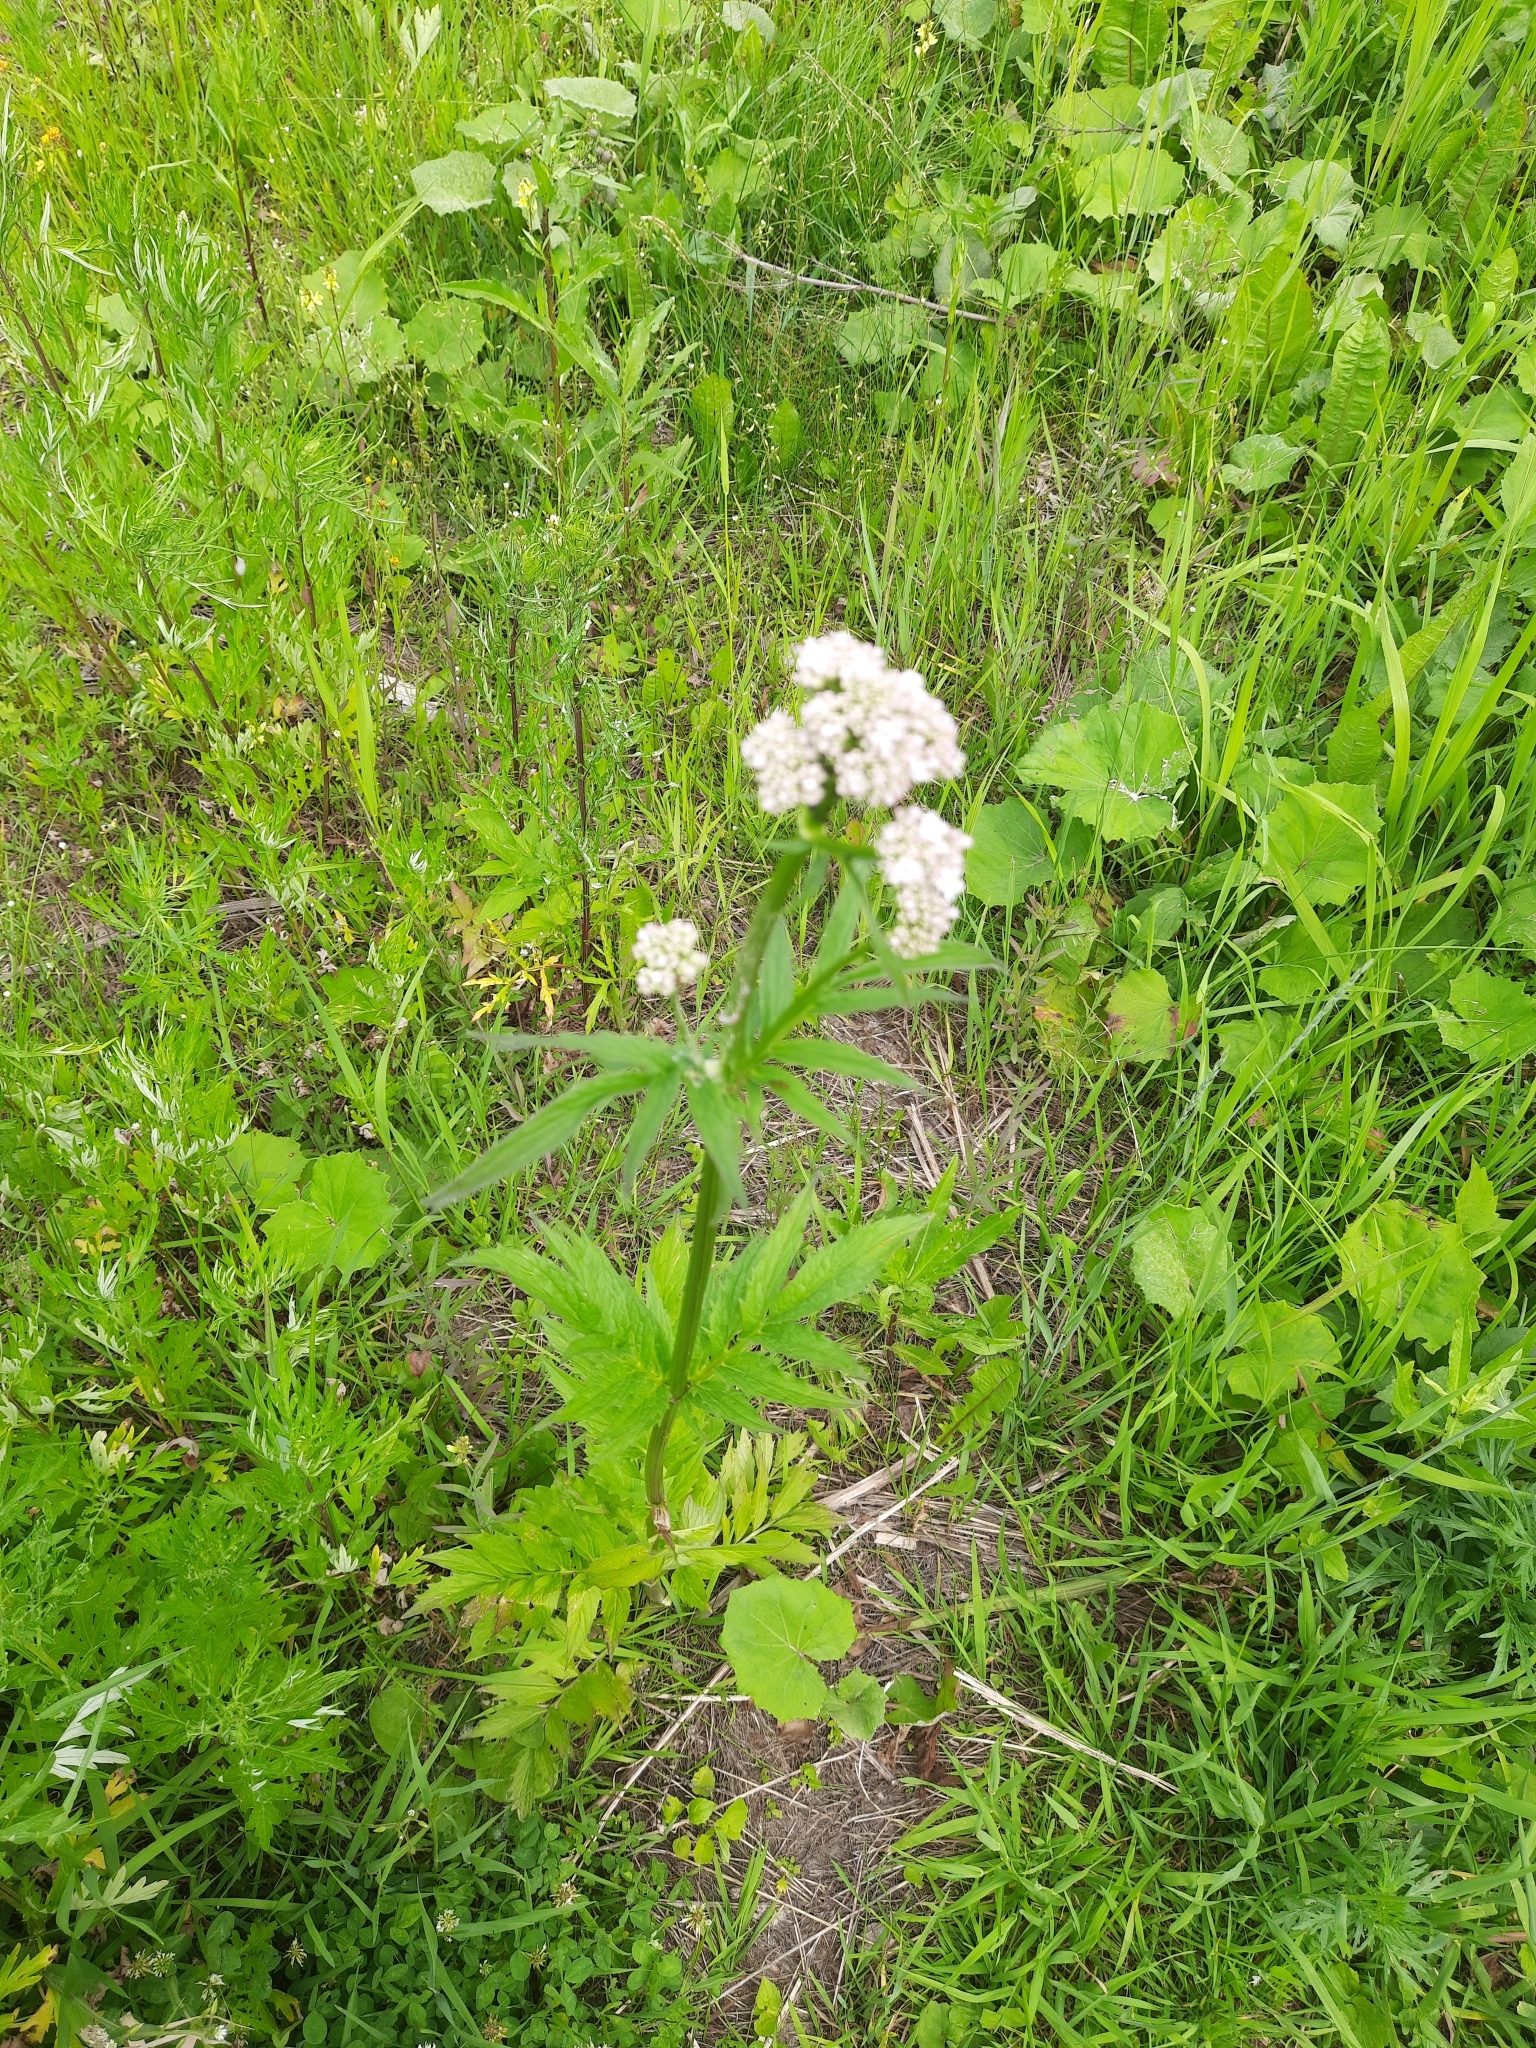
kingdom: Plantae
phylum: Tracheophyta
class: Magnoliopsida
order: Dipsacales
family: Caprifoliaceae
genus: Valeriana
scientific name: Valeriana wolgensis
